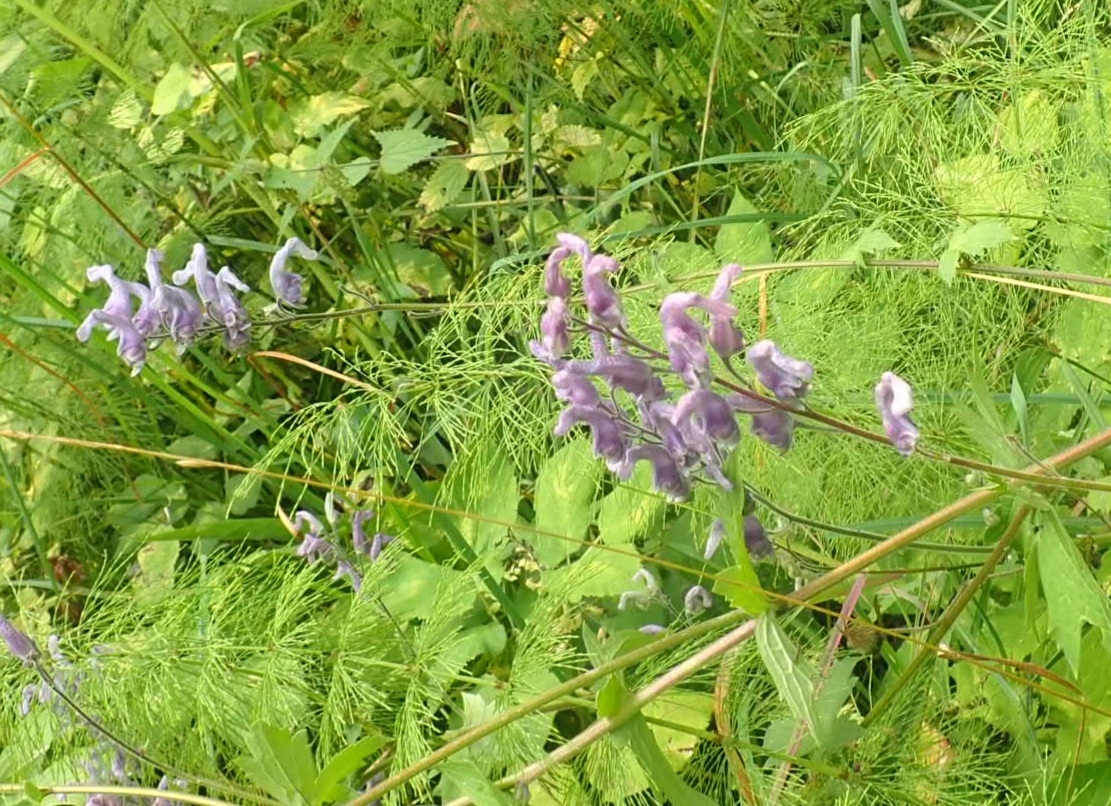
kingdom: Plantae
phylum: Tracheophyta
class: Magnoliopsida
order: Ranunculales
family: Ranunculaceae
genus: Aconitum
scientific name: Aconitum septentrionale
